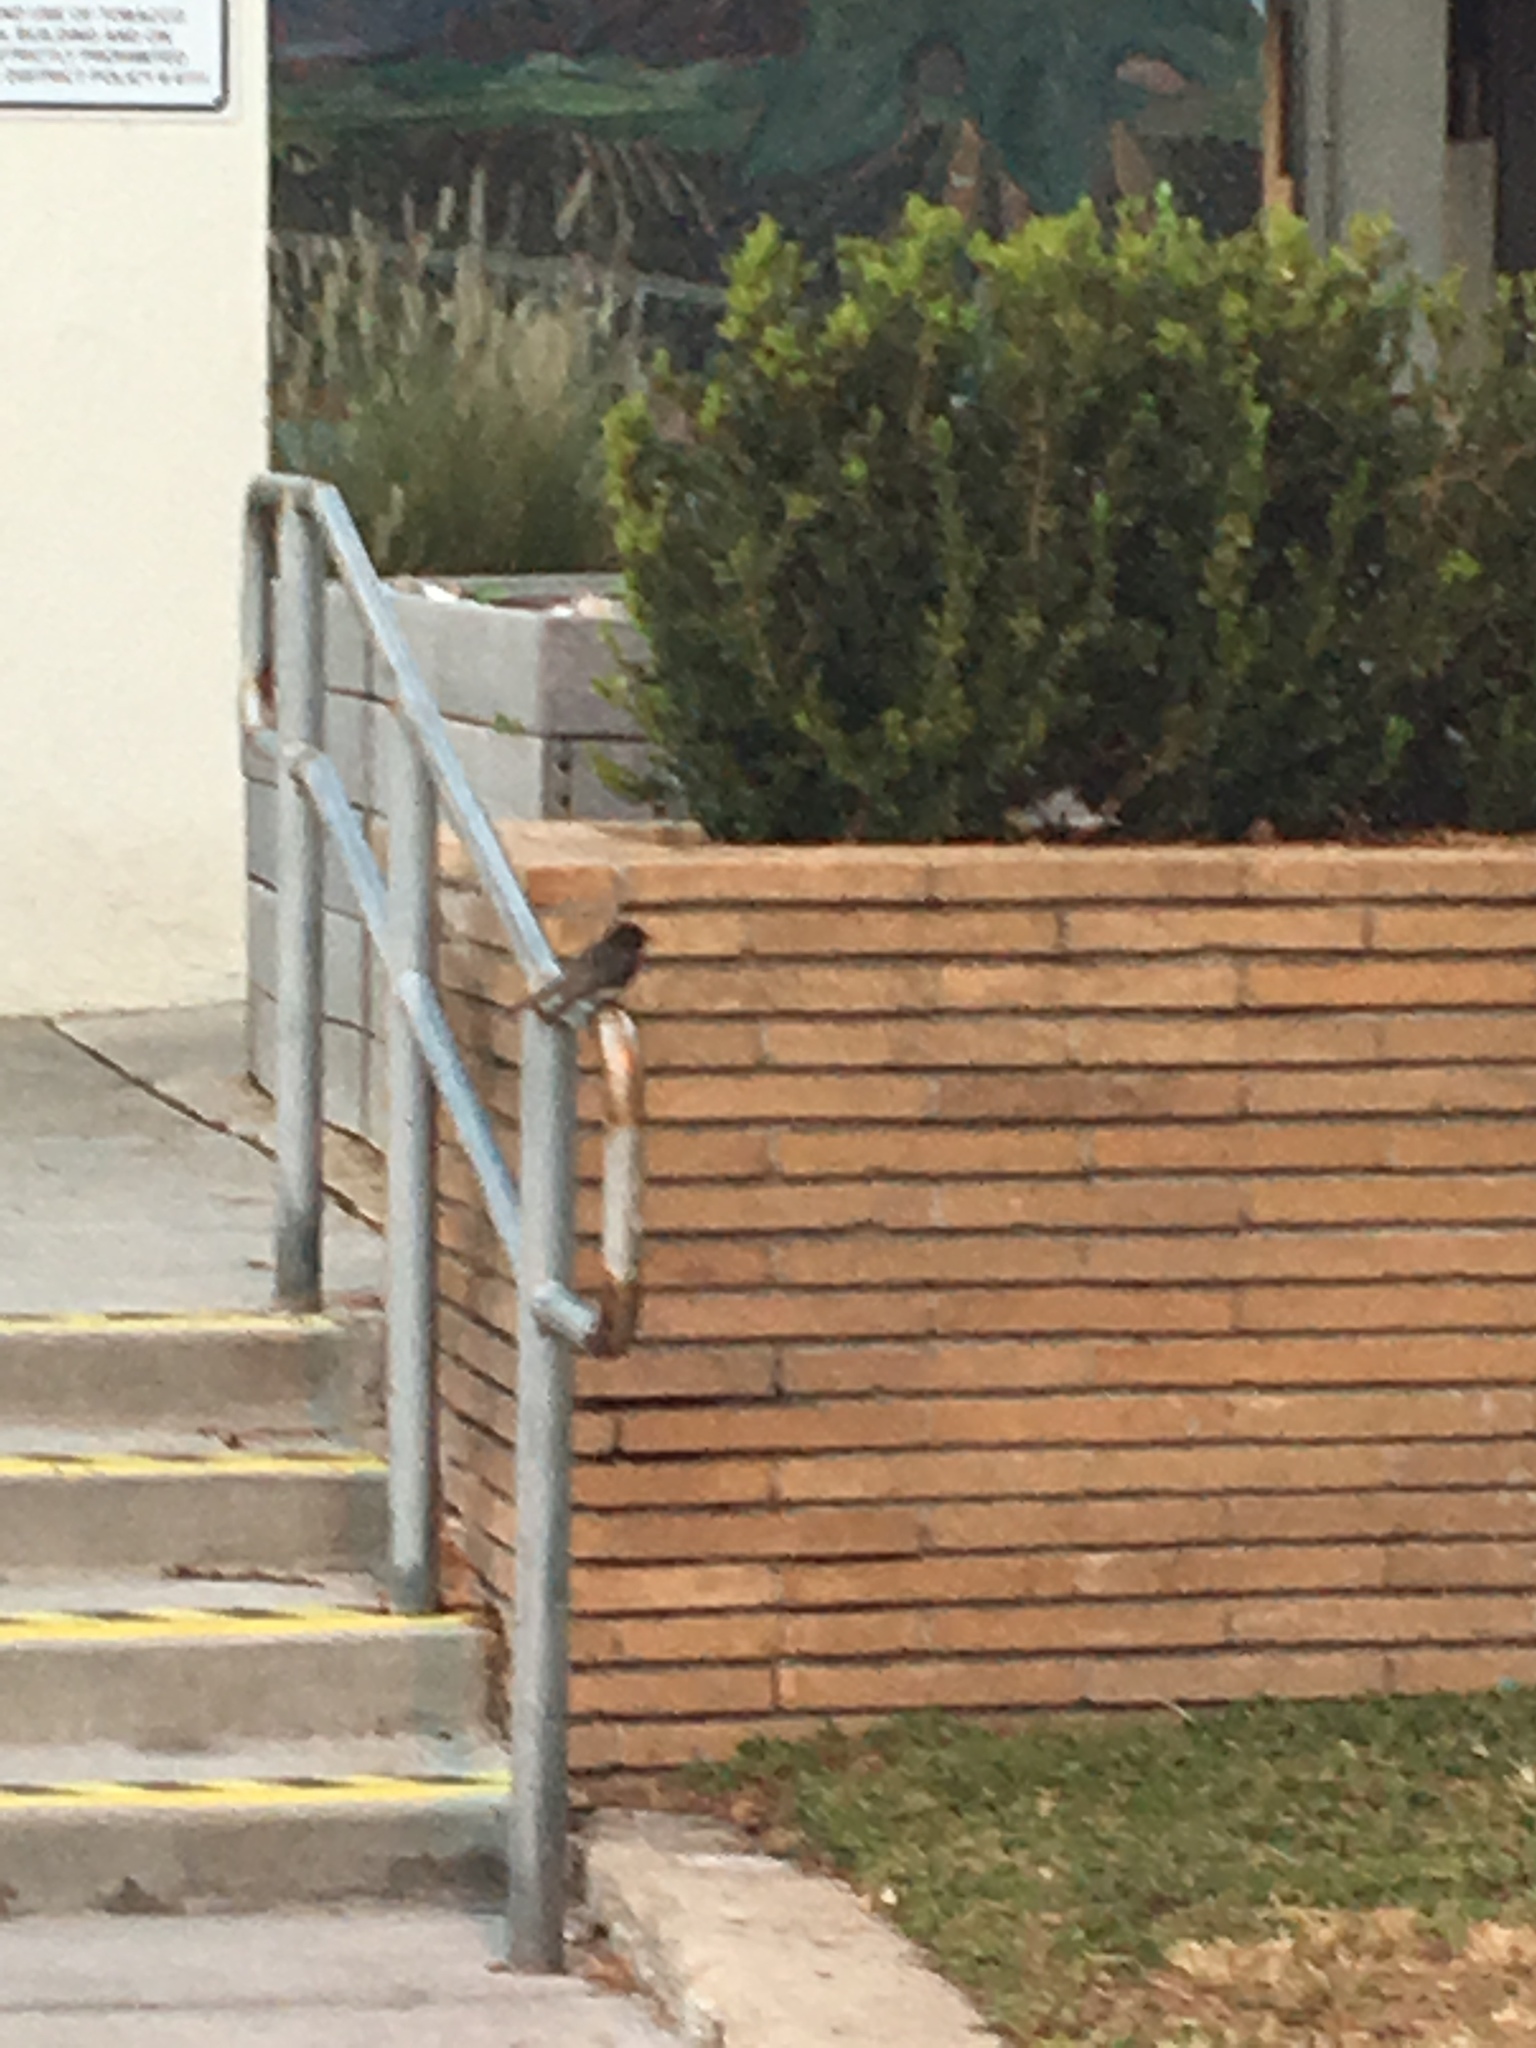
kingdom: Animalia
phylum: Chordata
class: Aves
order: Passeriformes
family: Tyrannidae
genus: Sayornis
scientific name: Sayornis nigricans
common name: Black phoebe
